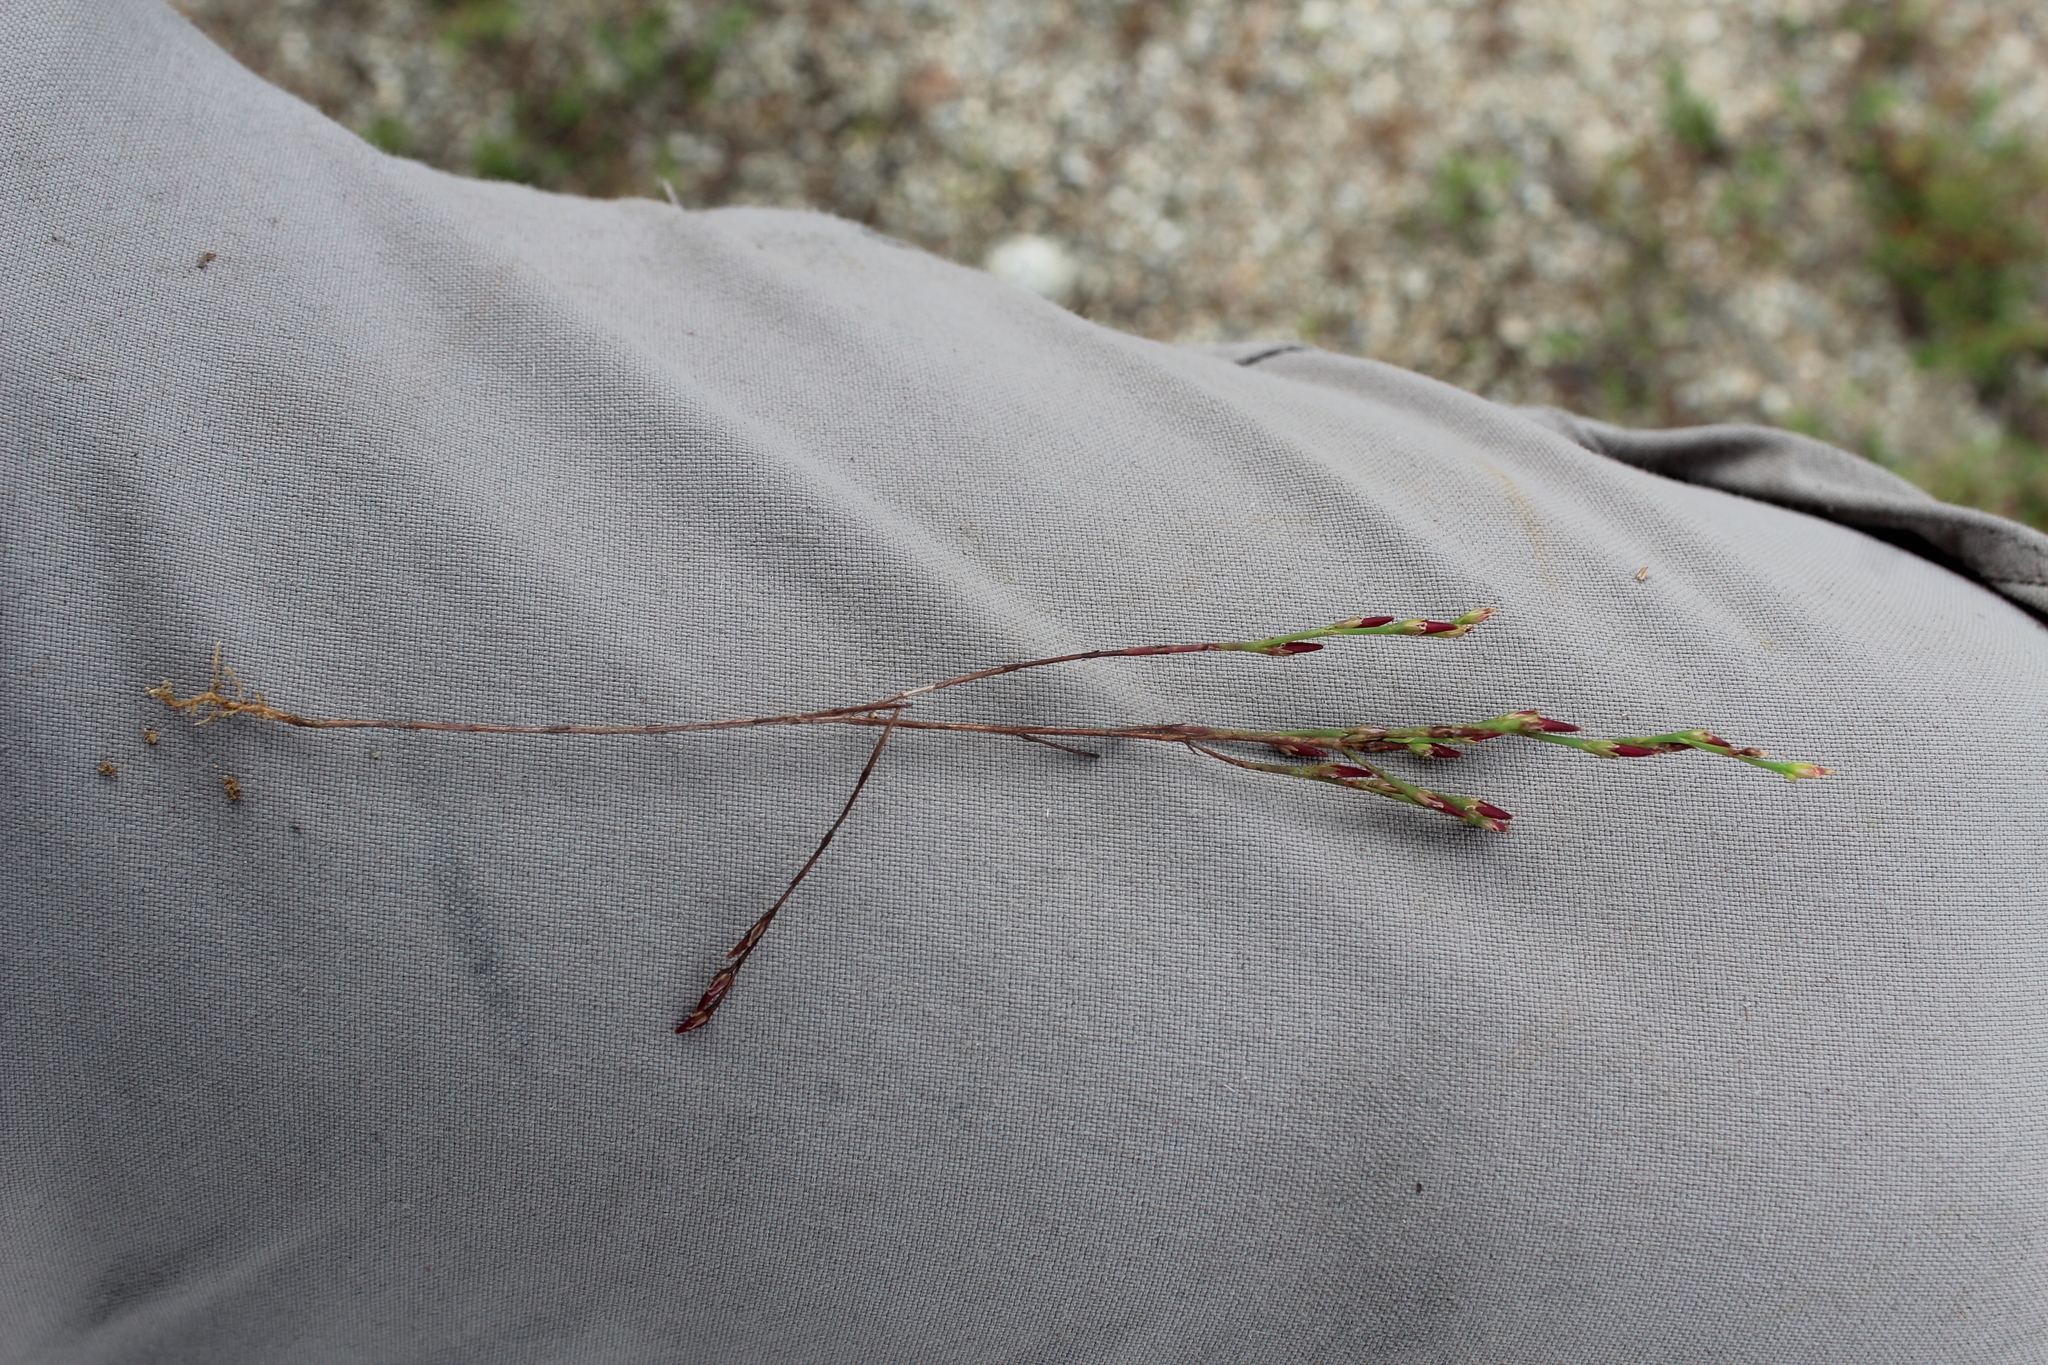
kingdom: Plantae
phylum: Tracheophyta
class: Magnoliopsida
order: Malpighiales
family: Hypericaceae
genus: Hypericum
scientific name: Hypericum gentianoides
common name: Gentian-leaved st. john's-wort
